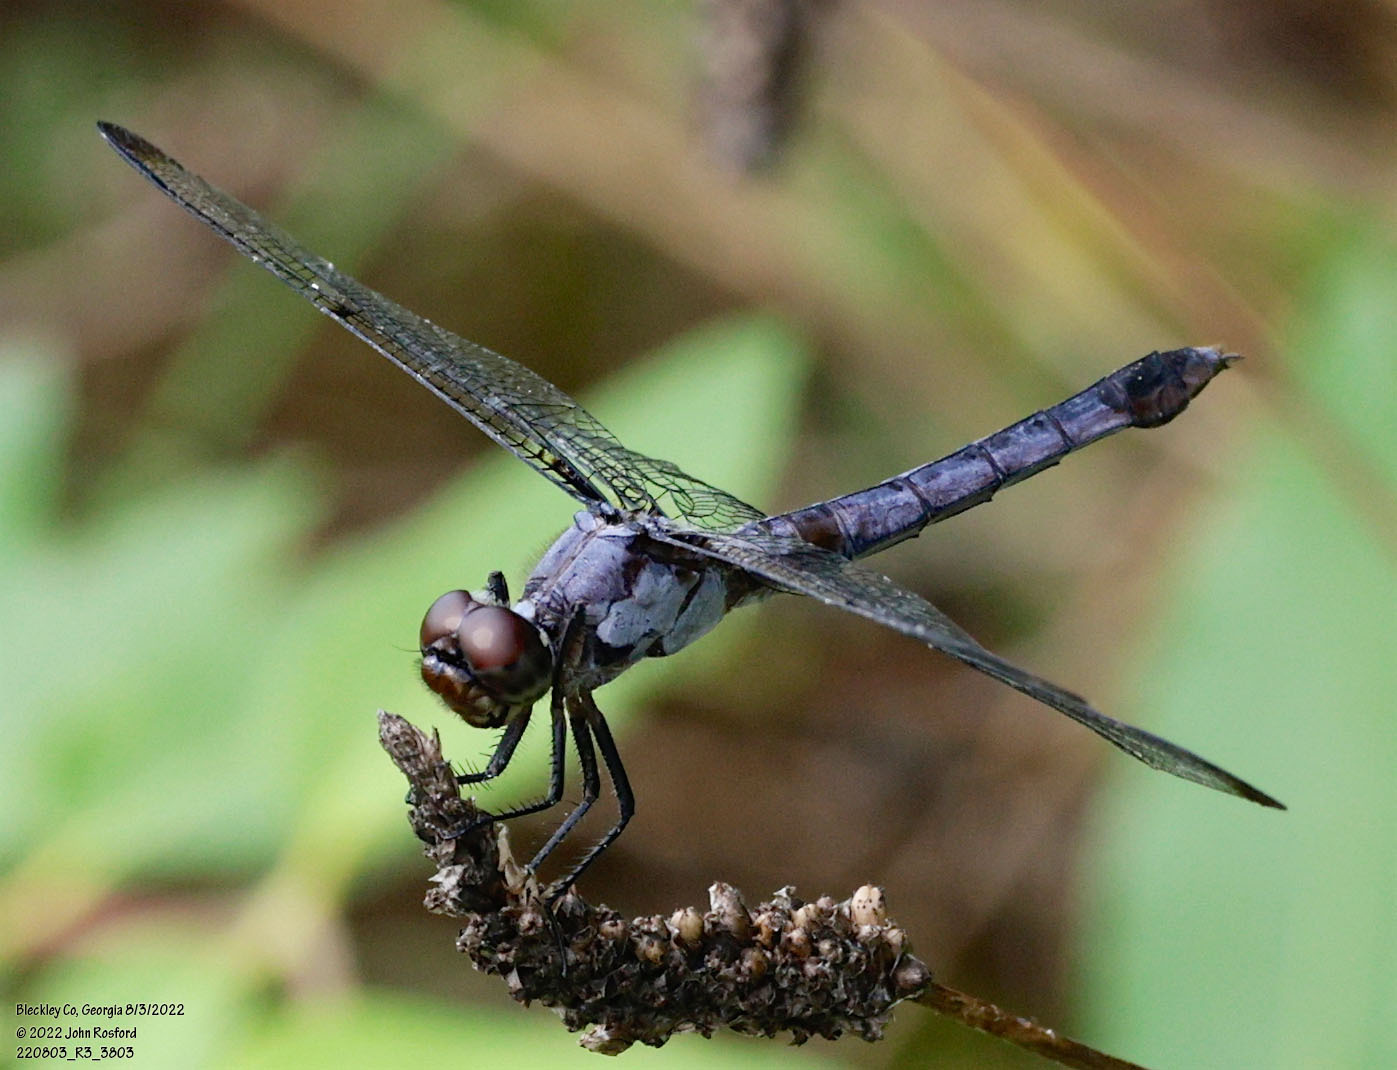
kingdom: Animalia
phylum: Arthropoda
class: Insecta
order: Odonata
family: Libellulidae
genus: Libellula
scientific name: Libellula incesta
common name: Slaty skimmer
